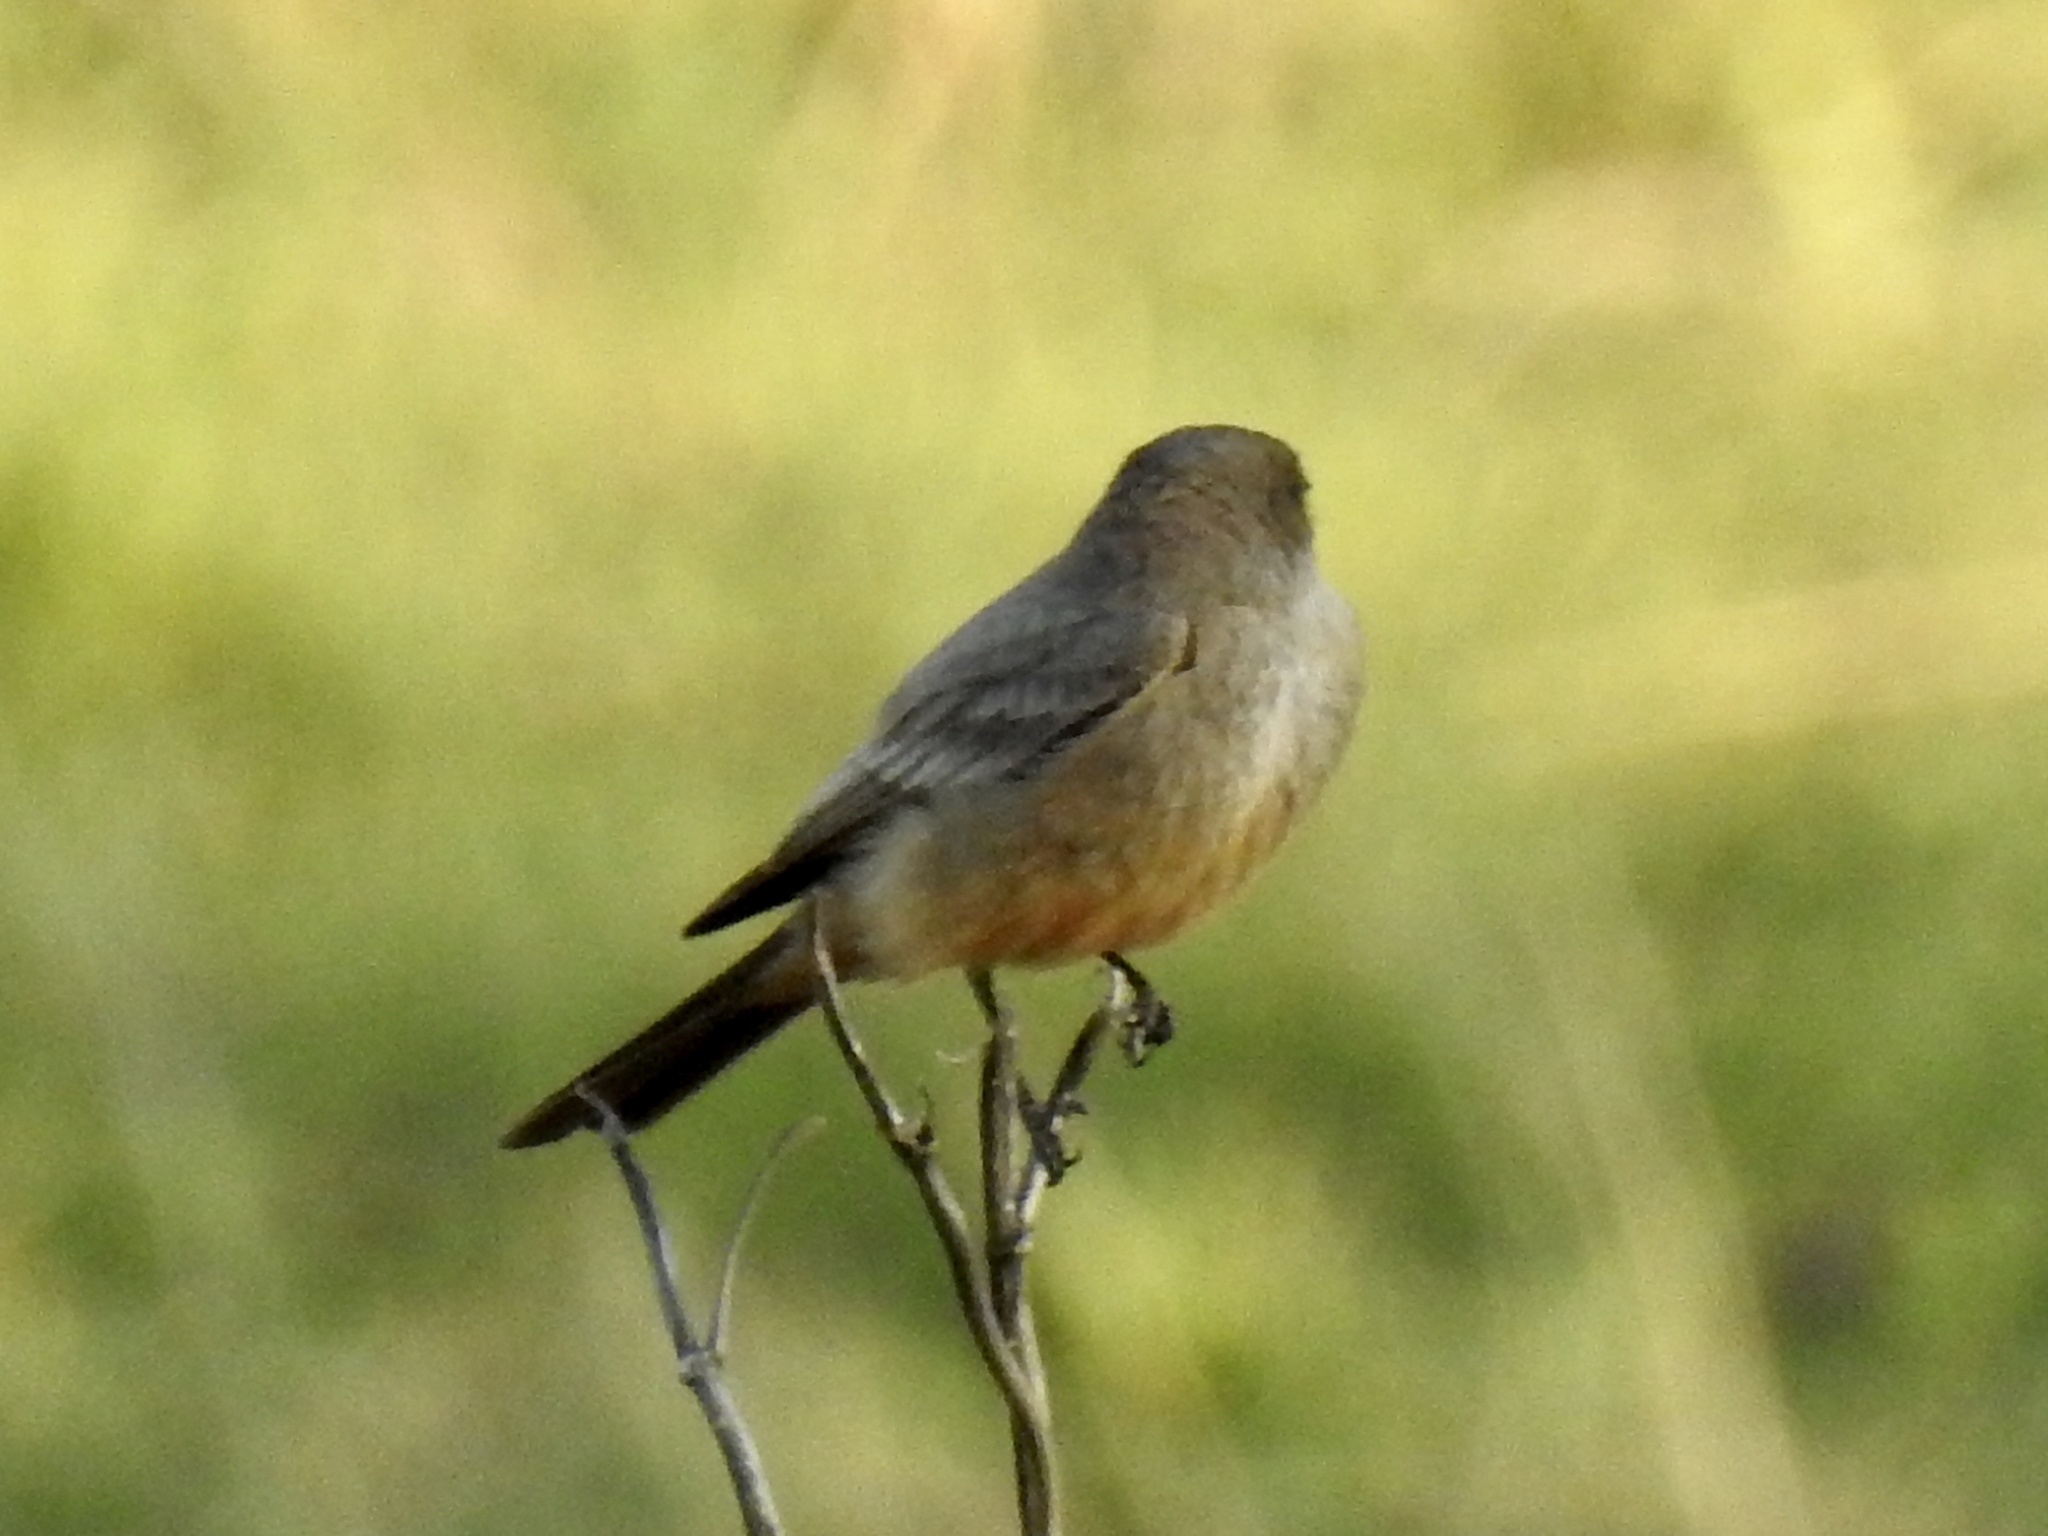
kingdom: Animalia
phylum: Chordata
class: Aves
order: Passeriformes
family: Tyrannidae
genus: Sayornis
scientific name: Sayornis saya
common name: Say's phoebe
